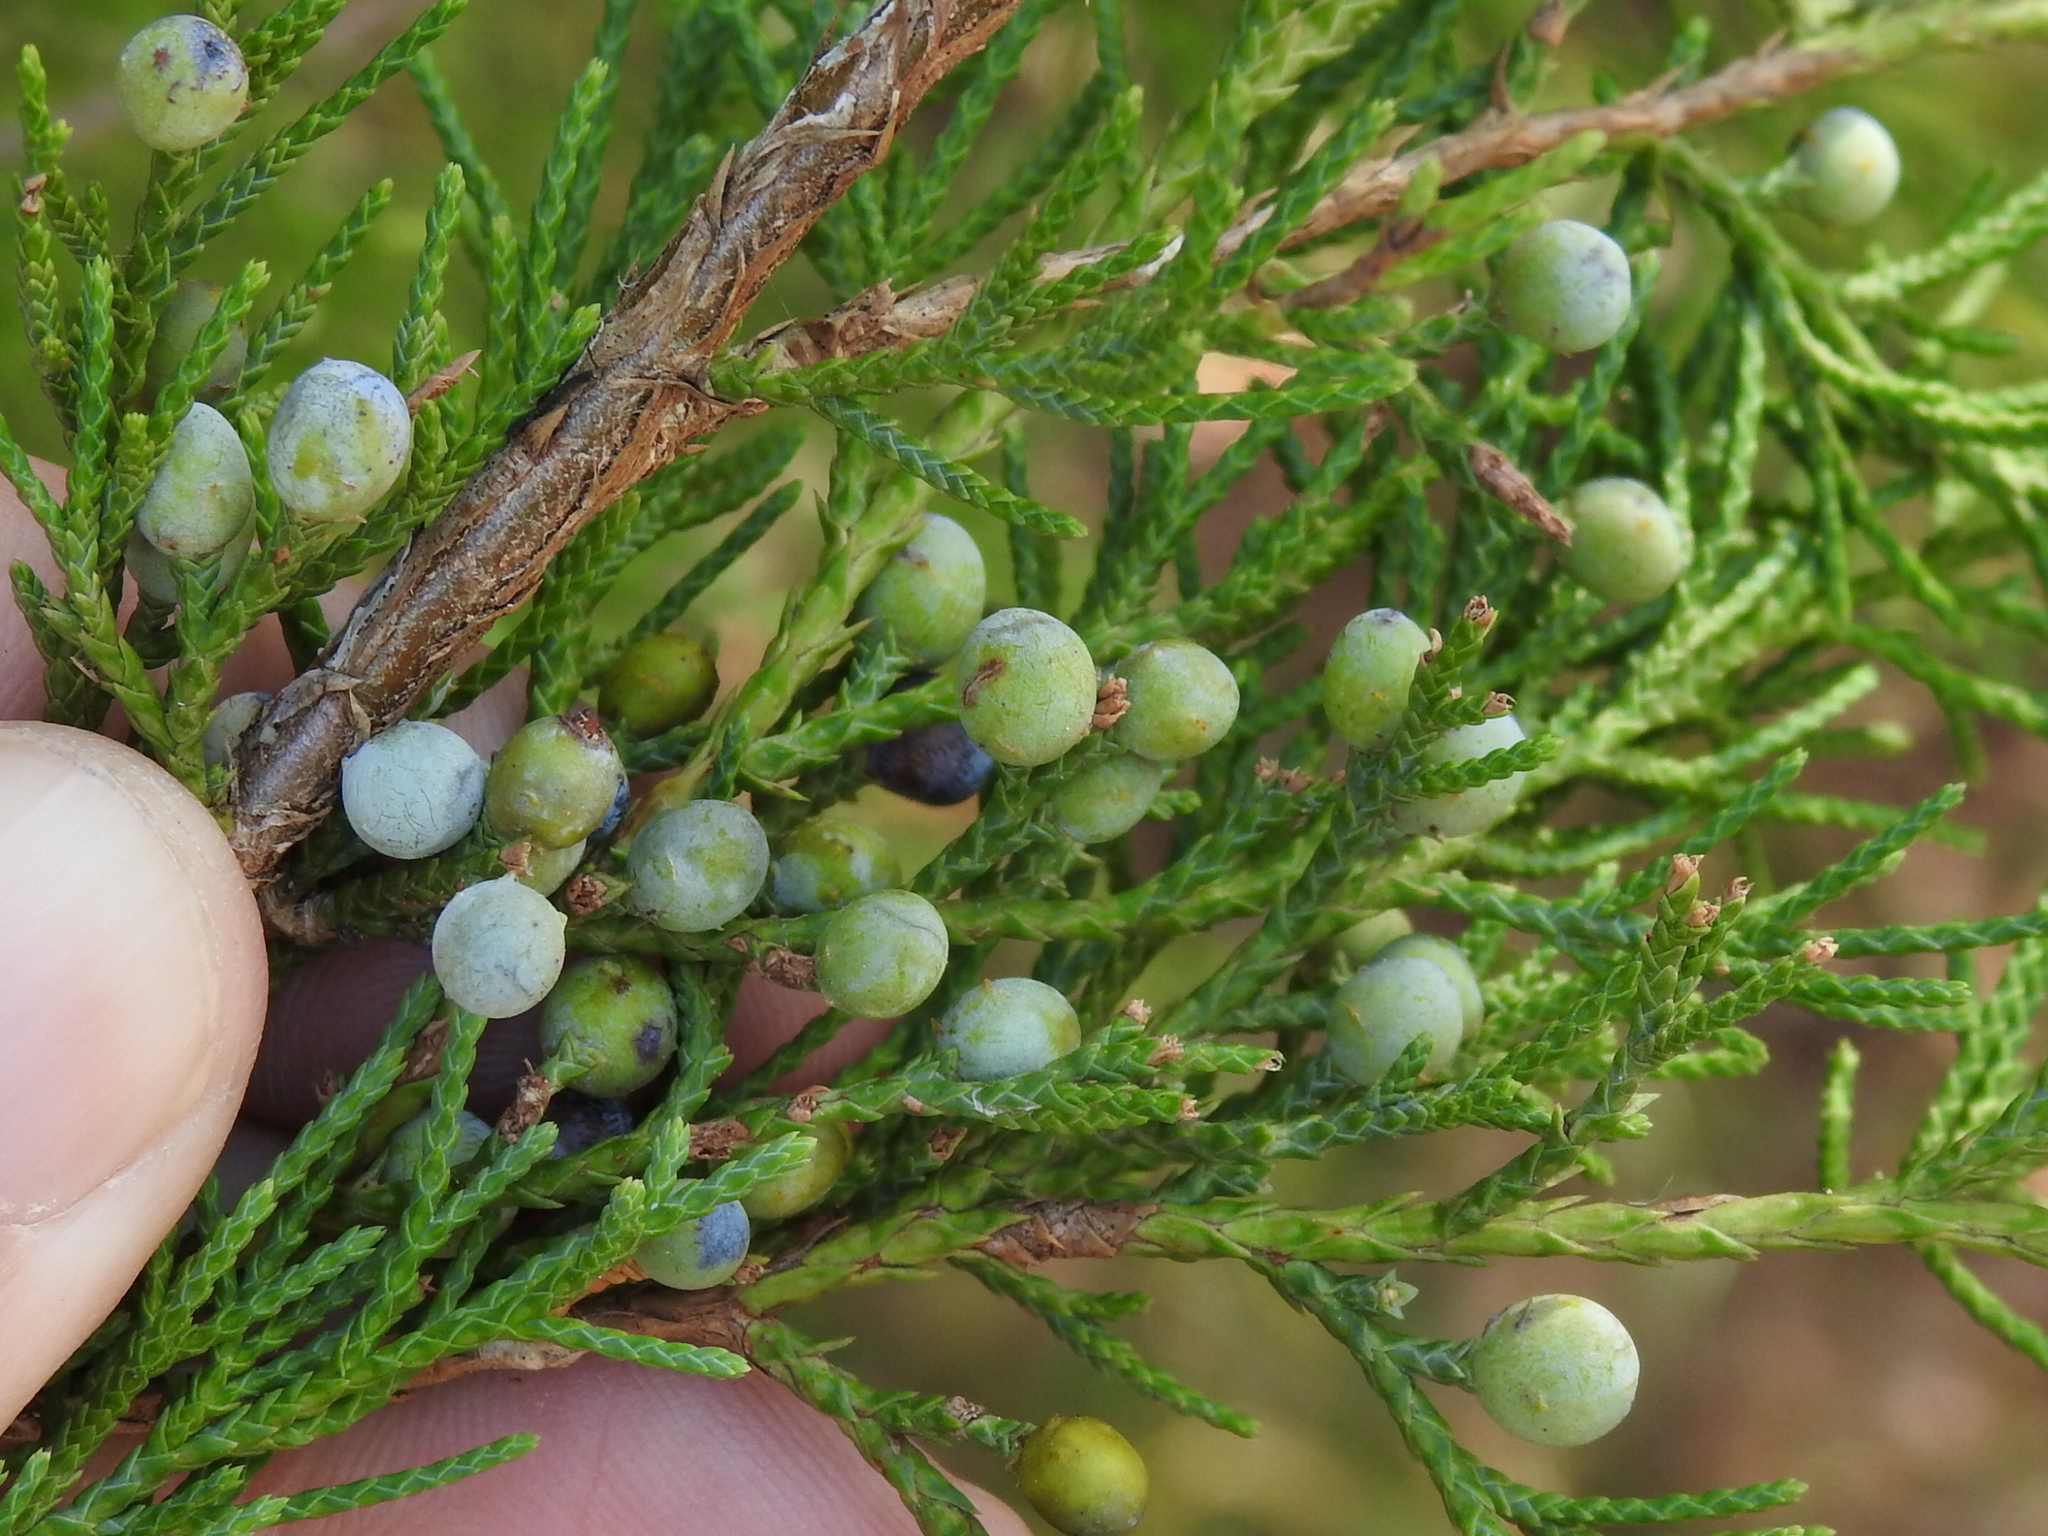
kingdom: Plantae
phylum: Tracheophyta
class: Pinopsida
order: Pinales
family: Cupressaceae
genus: Juniperus
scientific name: Juniperus virginiana
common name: Red juniper
